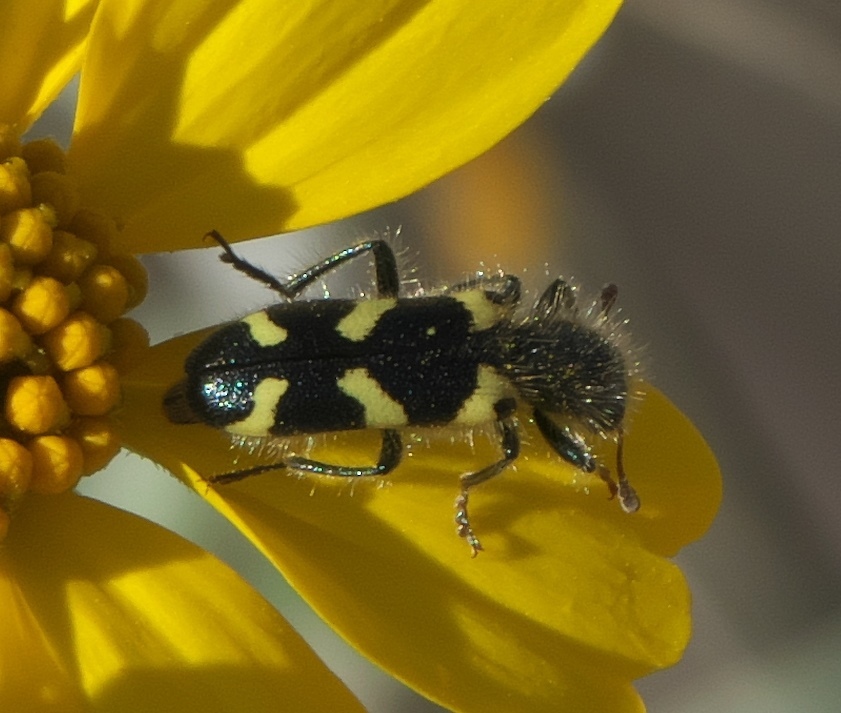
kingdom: Animalia
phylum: Arthropoda
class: Insecta
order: Coleoptera
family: Cleridae
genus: Trichodes
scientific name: Trichodes ornatus
